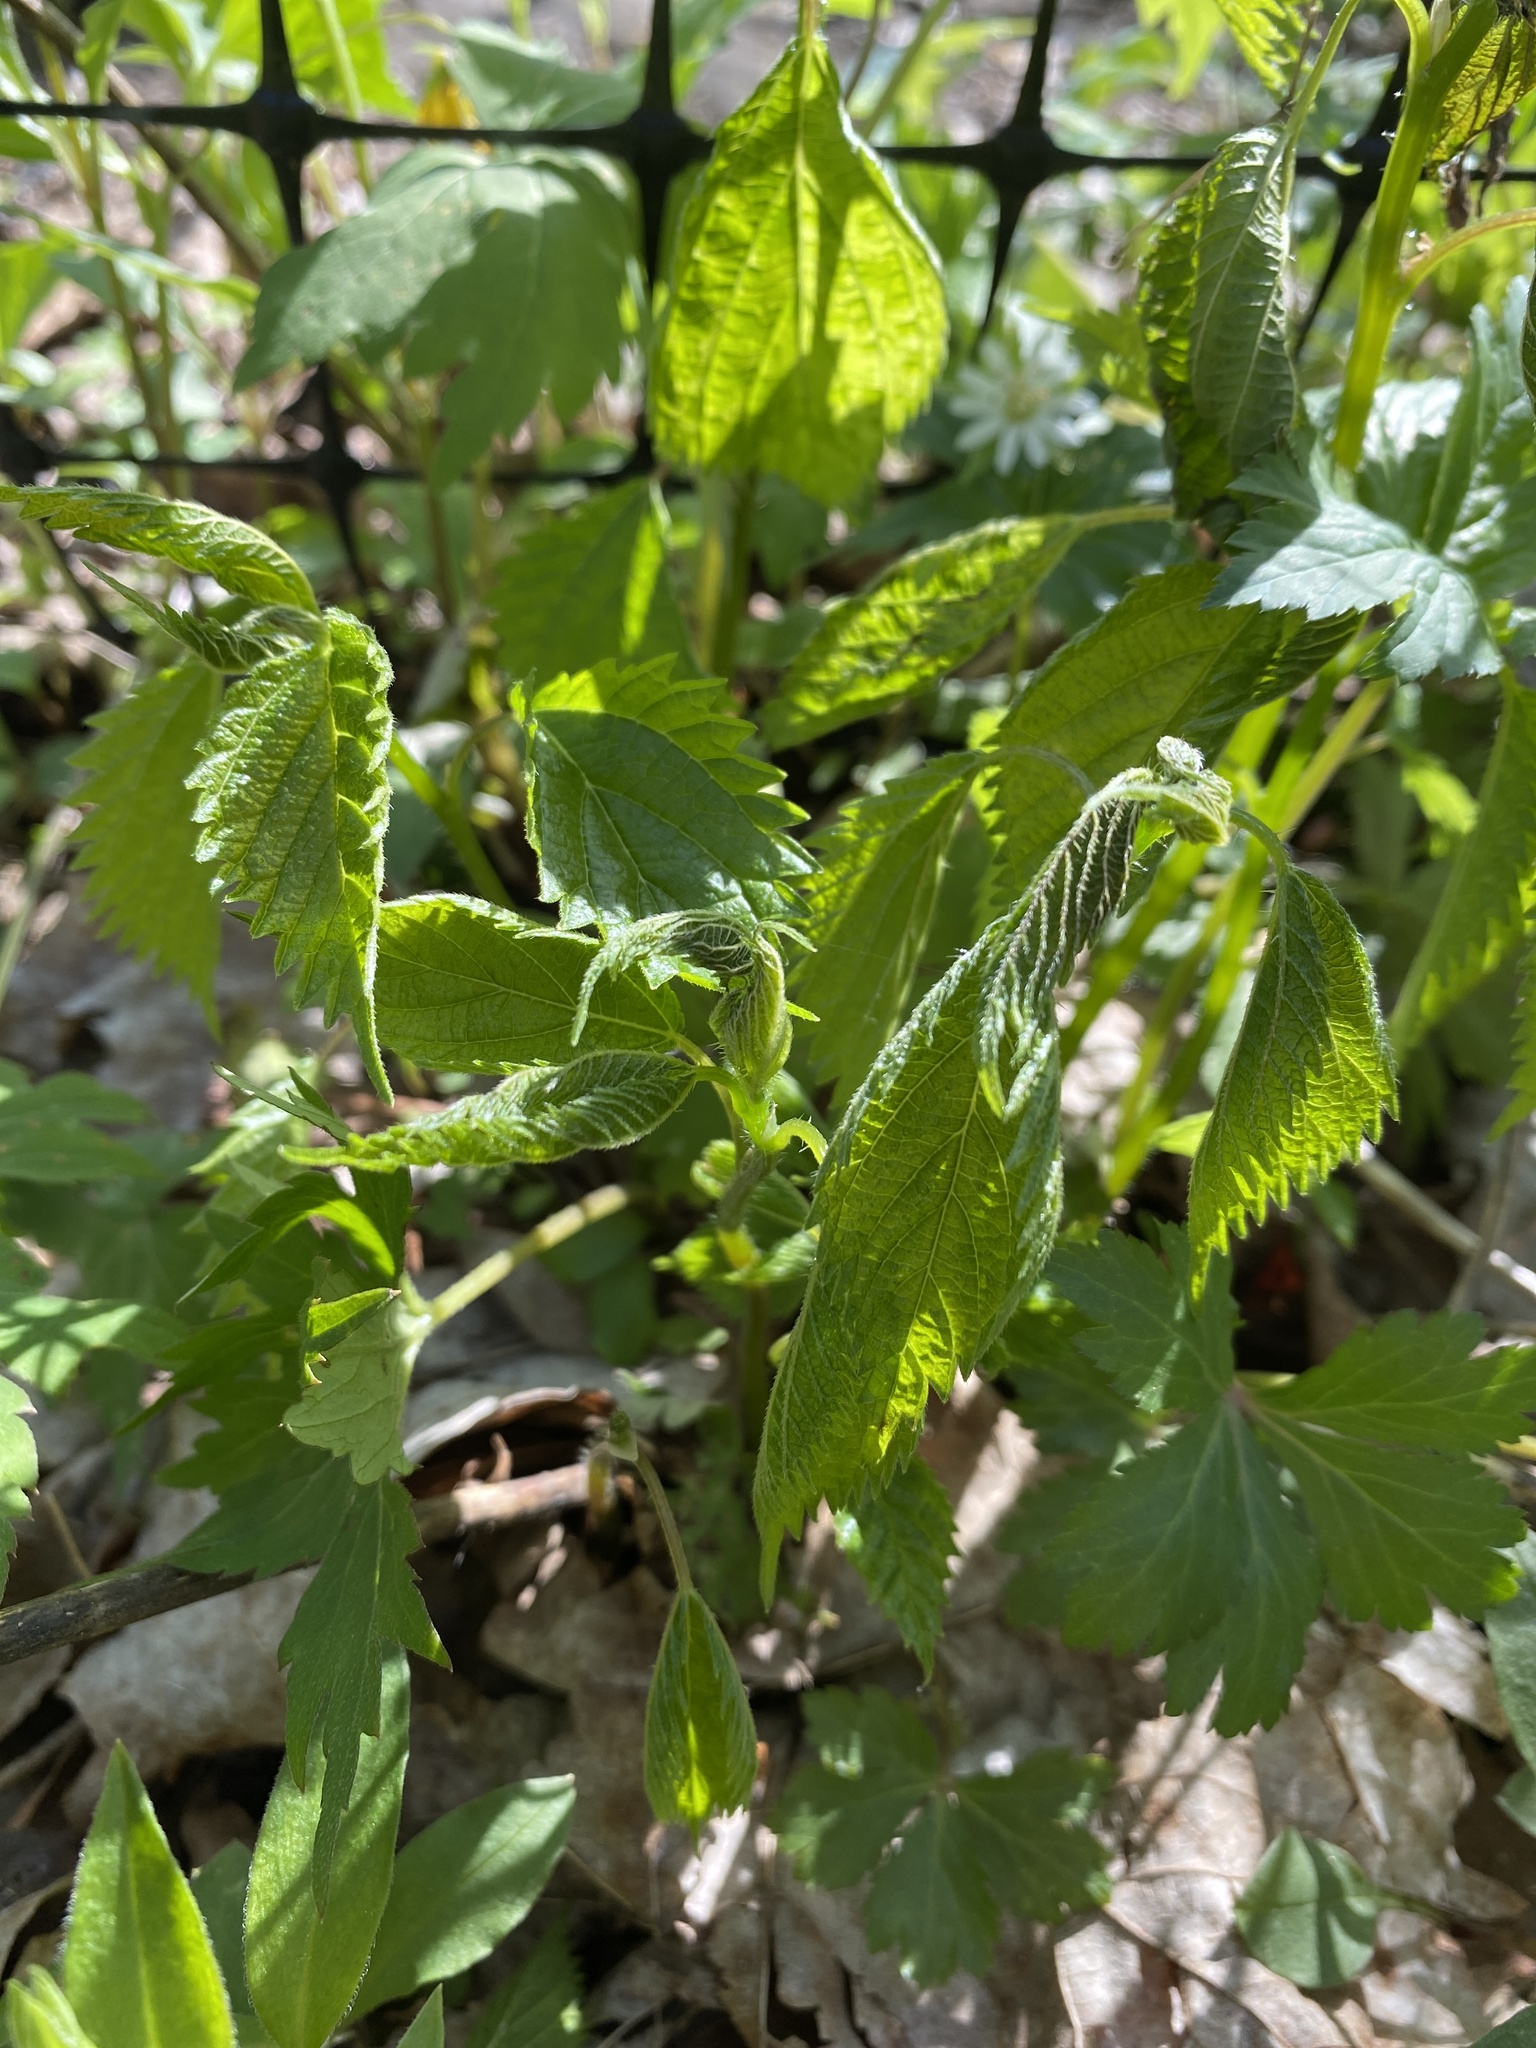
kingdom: Plantae
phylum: Tracheophyta
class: Magnoliopsida
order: Rosales
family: Urticaceae
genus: Laportea
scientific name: Laportea canadensis
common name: Canada nettle
